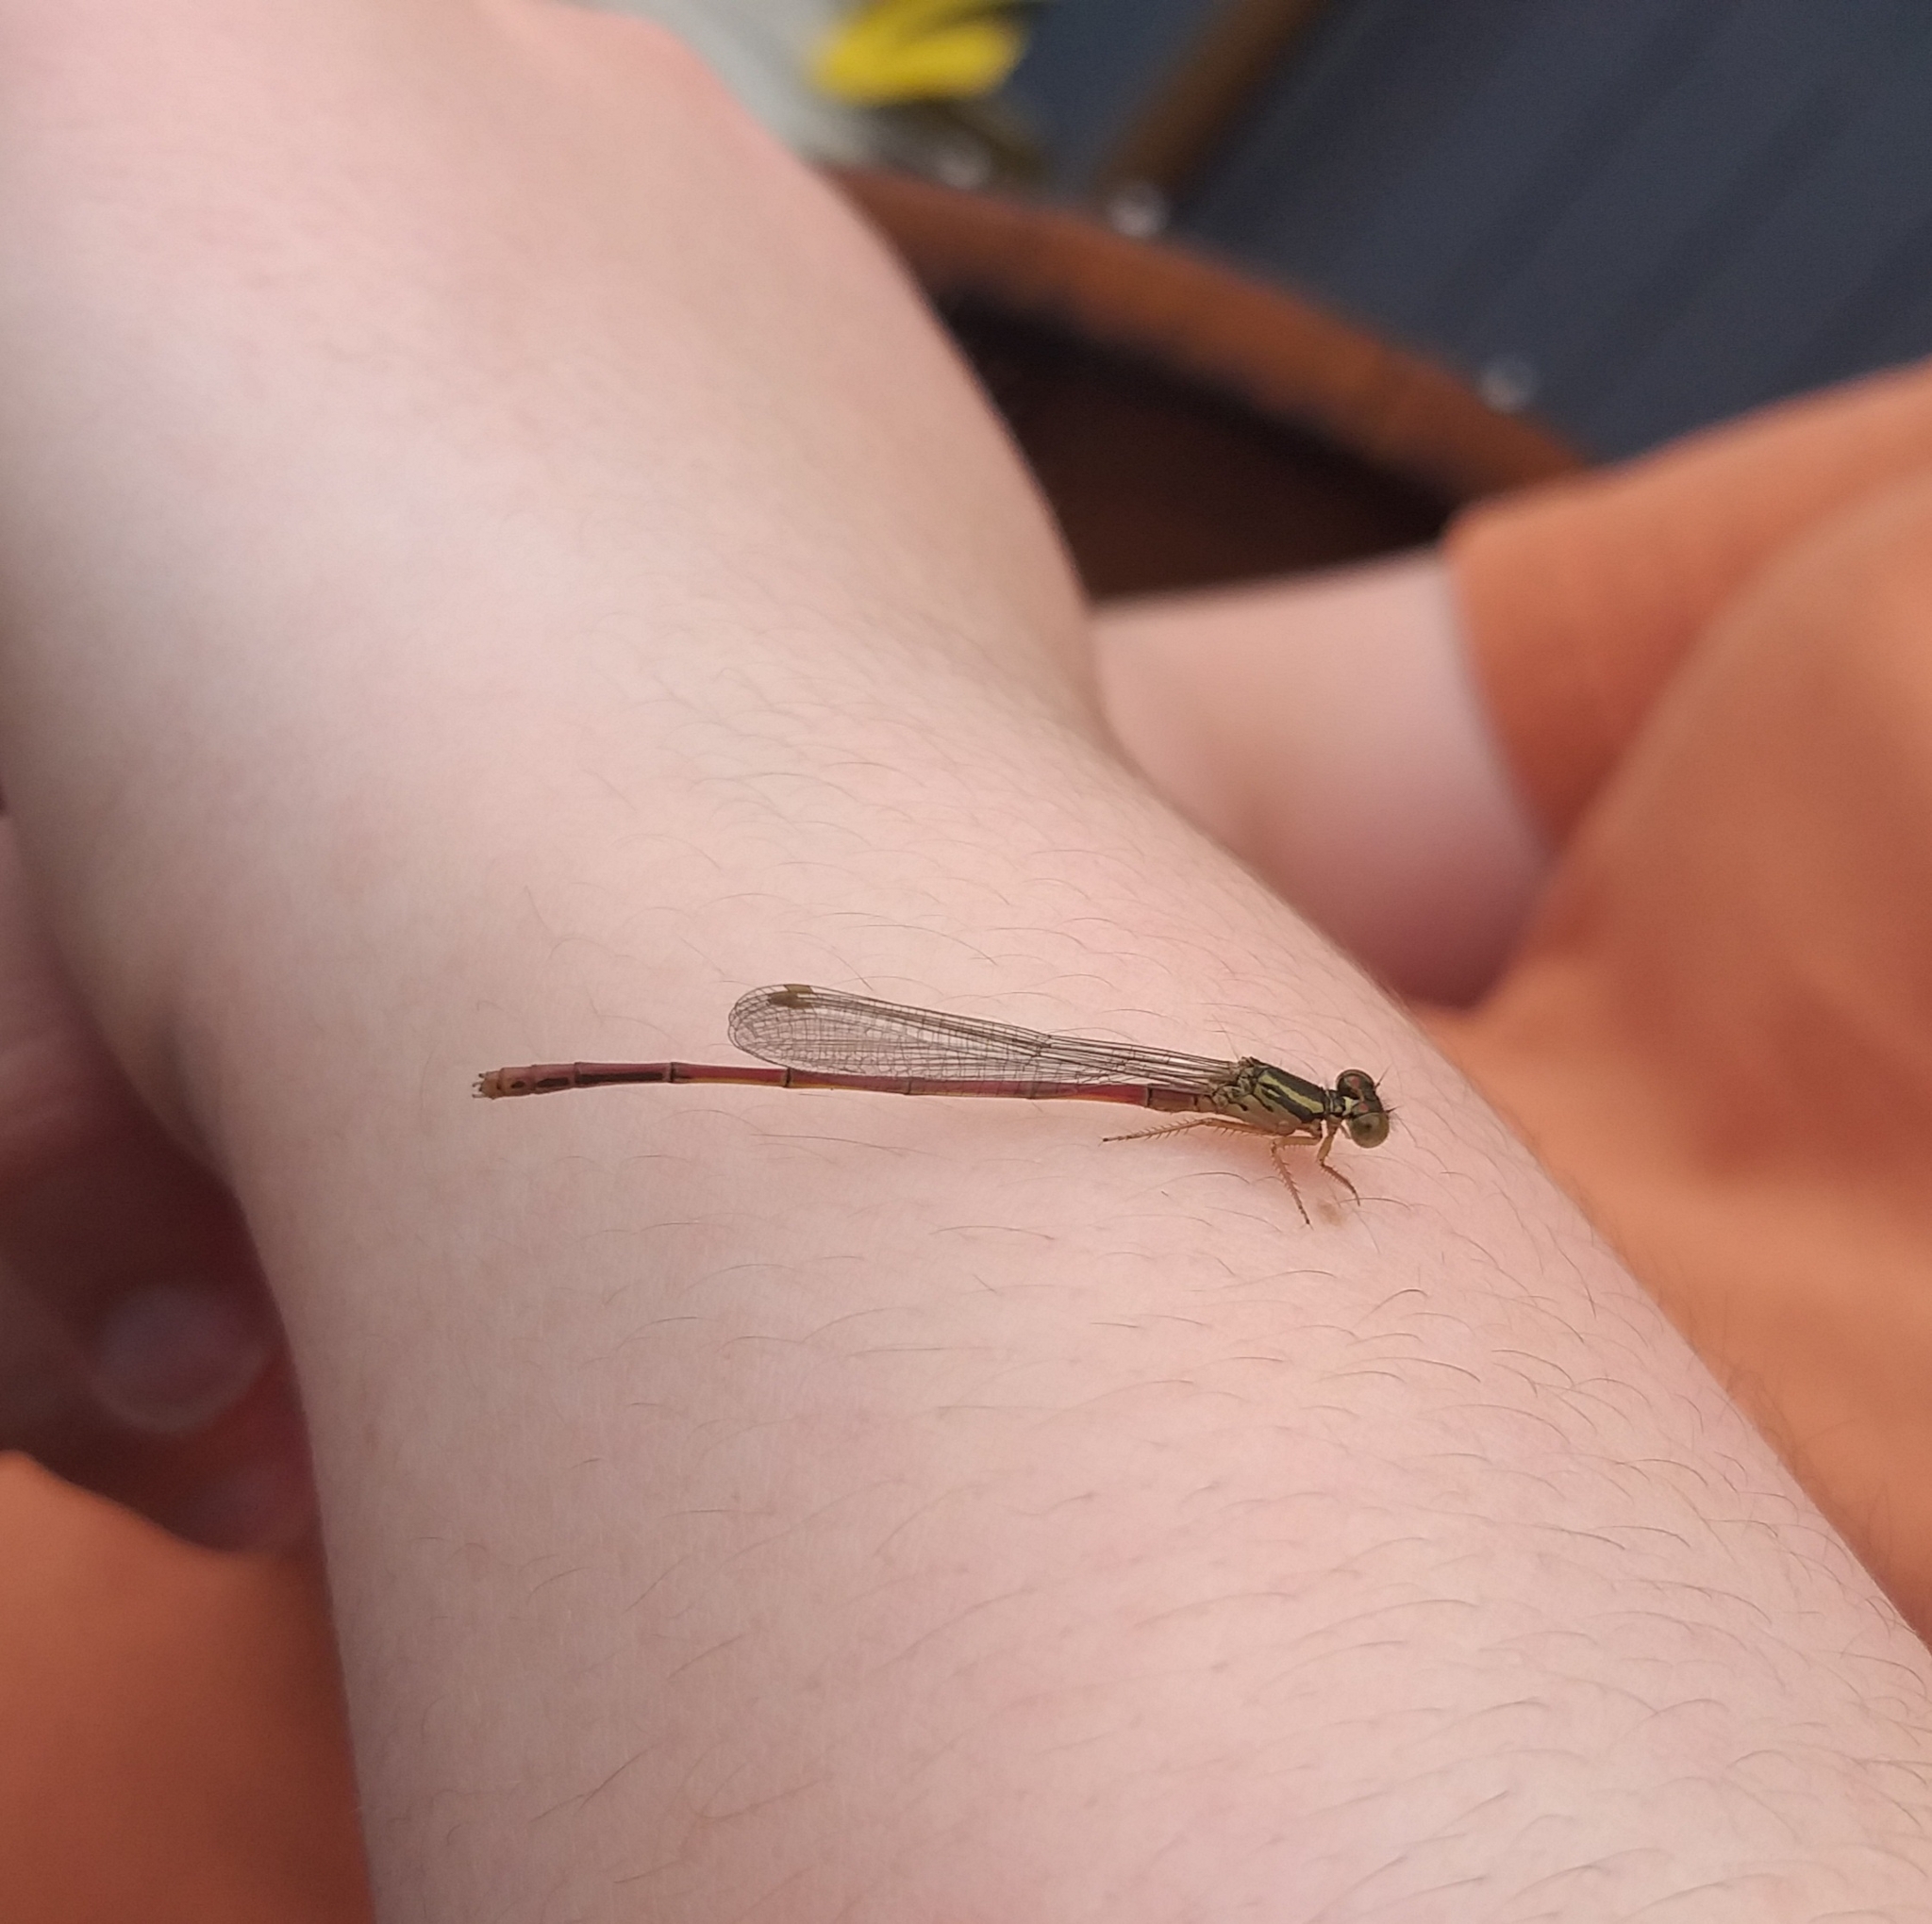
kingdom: Animalia
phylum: Arthropoda
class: Insecta
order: Odonata
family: Coenagrionidae
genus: Xanthocnemis
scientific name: Xanthocnemis zealandica
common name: Common redcoat damselfly
